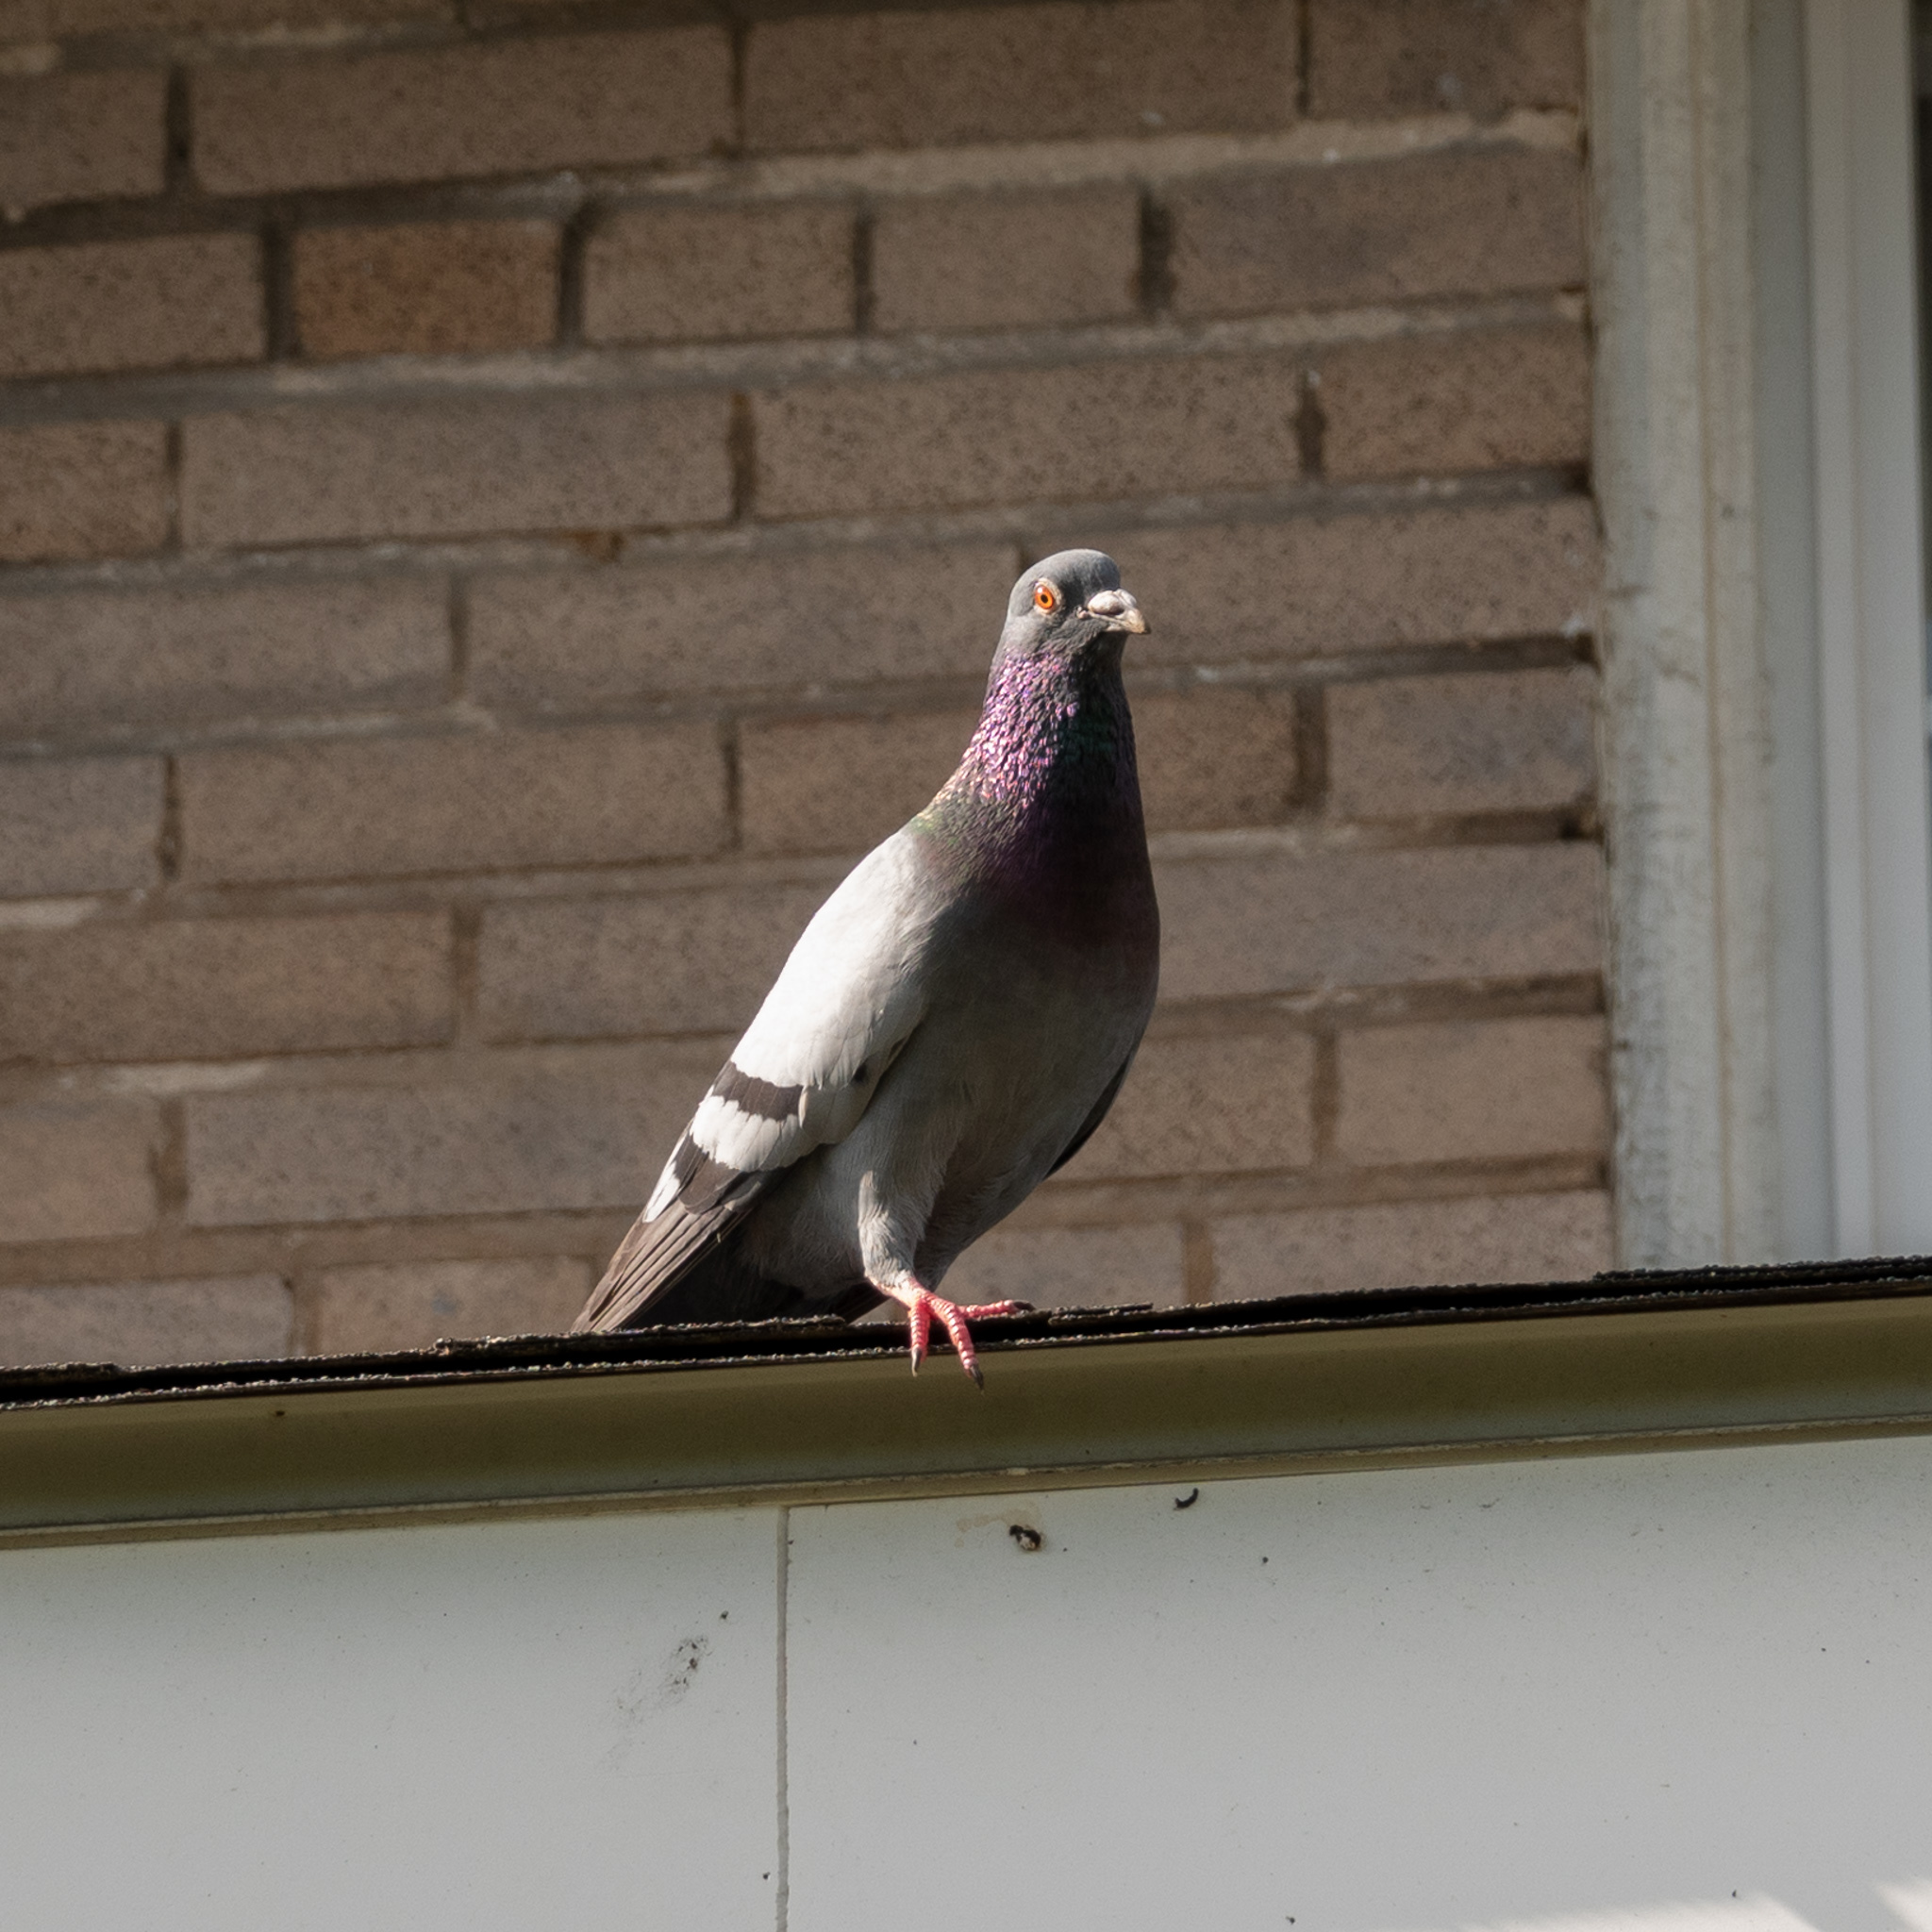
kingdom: Animalia
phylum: Chordata
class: Aves
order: Columbiformes
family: Columbidae
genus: Columba
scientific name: Columba livia
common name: Rock pigeon
